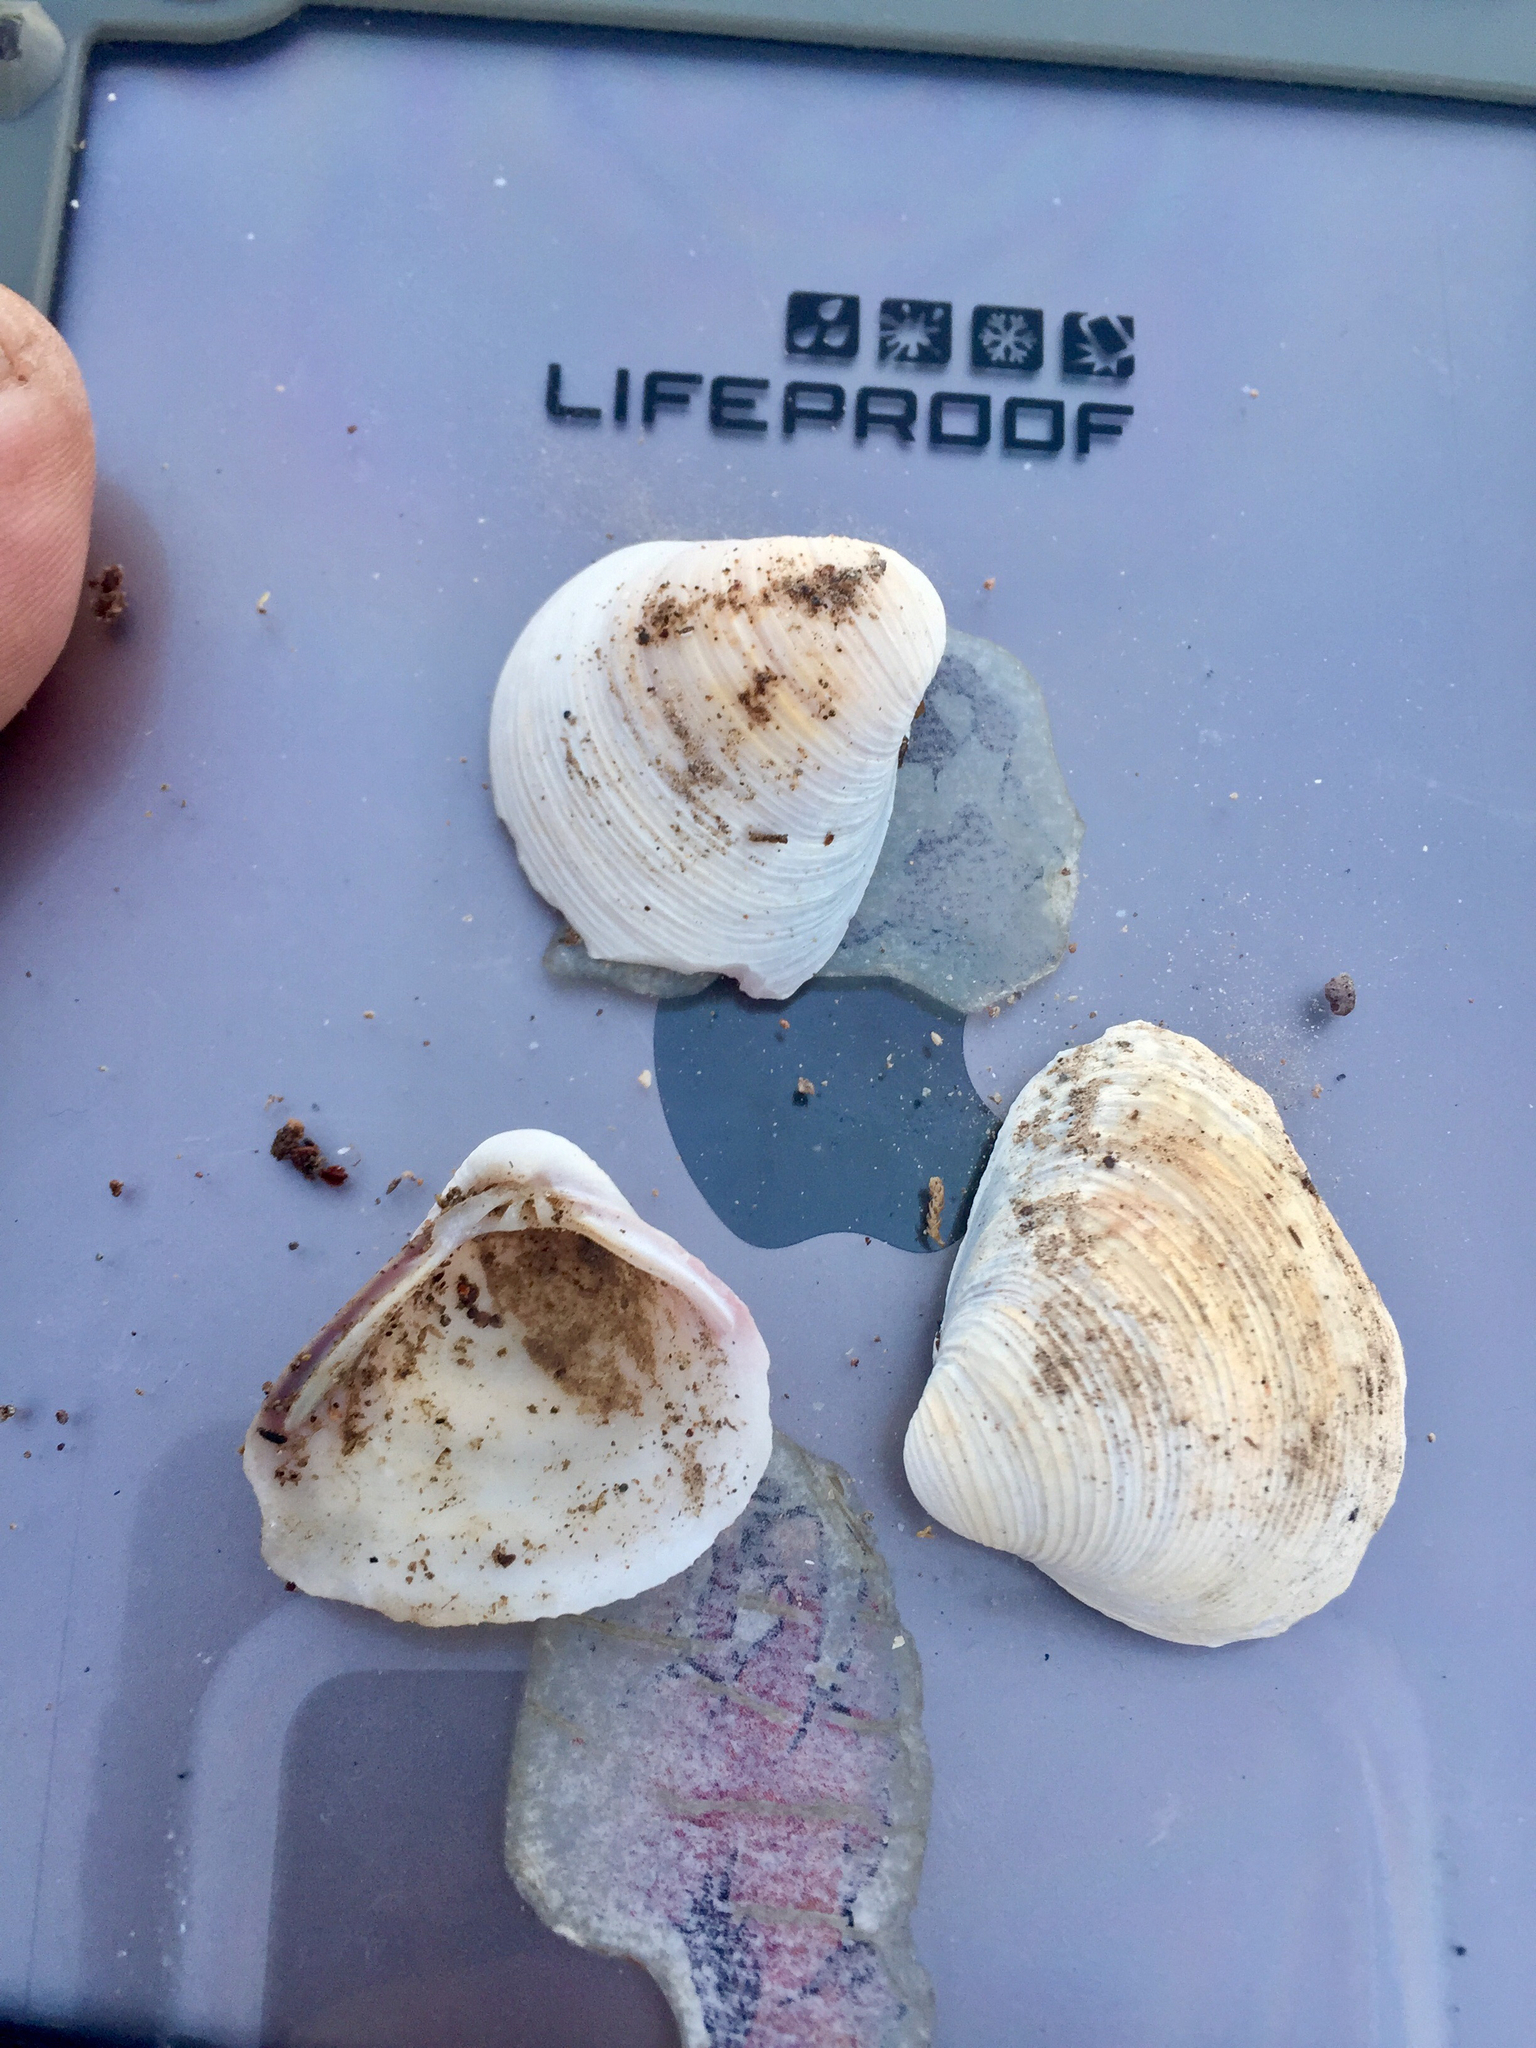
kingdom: Animalia
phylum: Mollusca
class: Bivalvia
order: Venerida
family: Cyrenidae
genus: Corbicula
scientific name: Corbicula fluminea
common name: Asian clam
